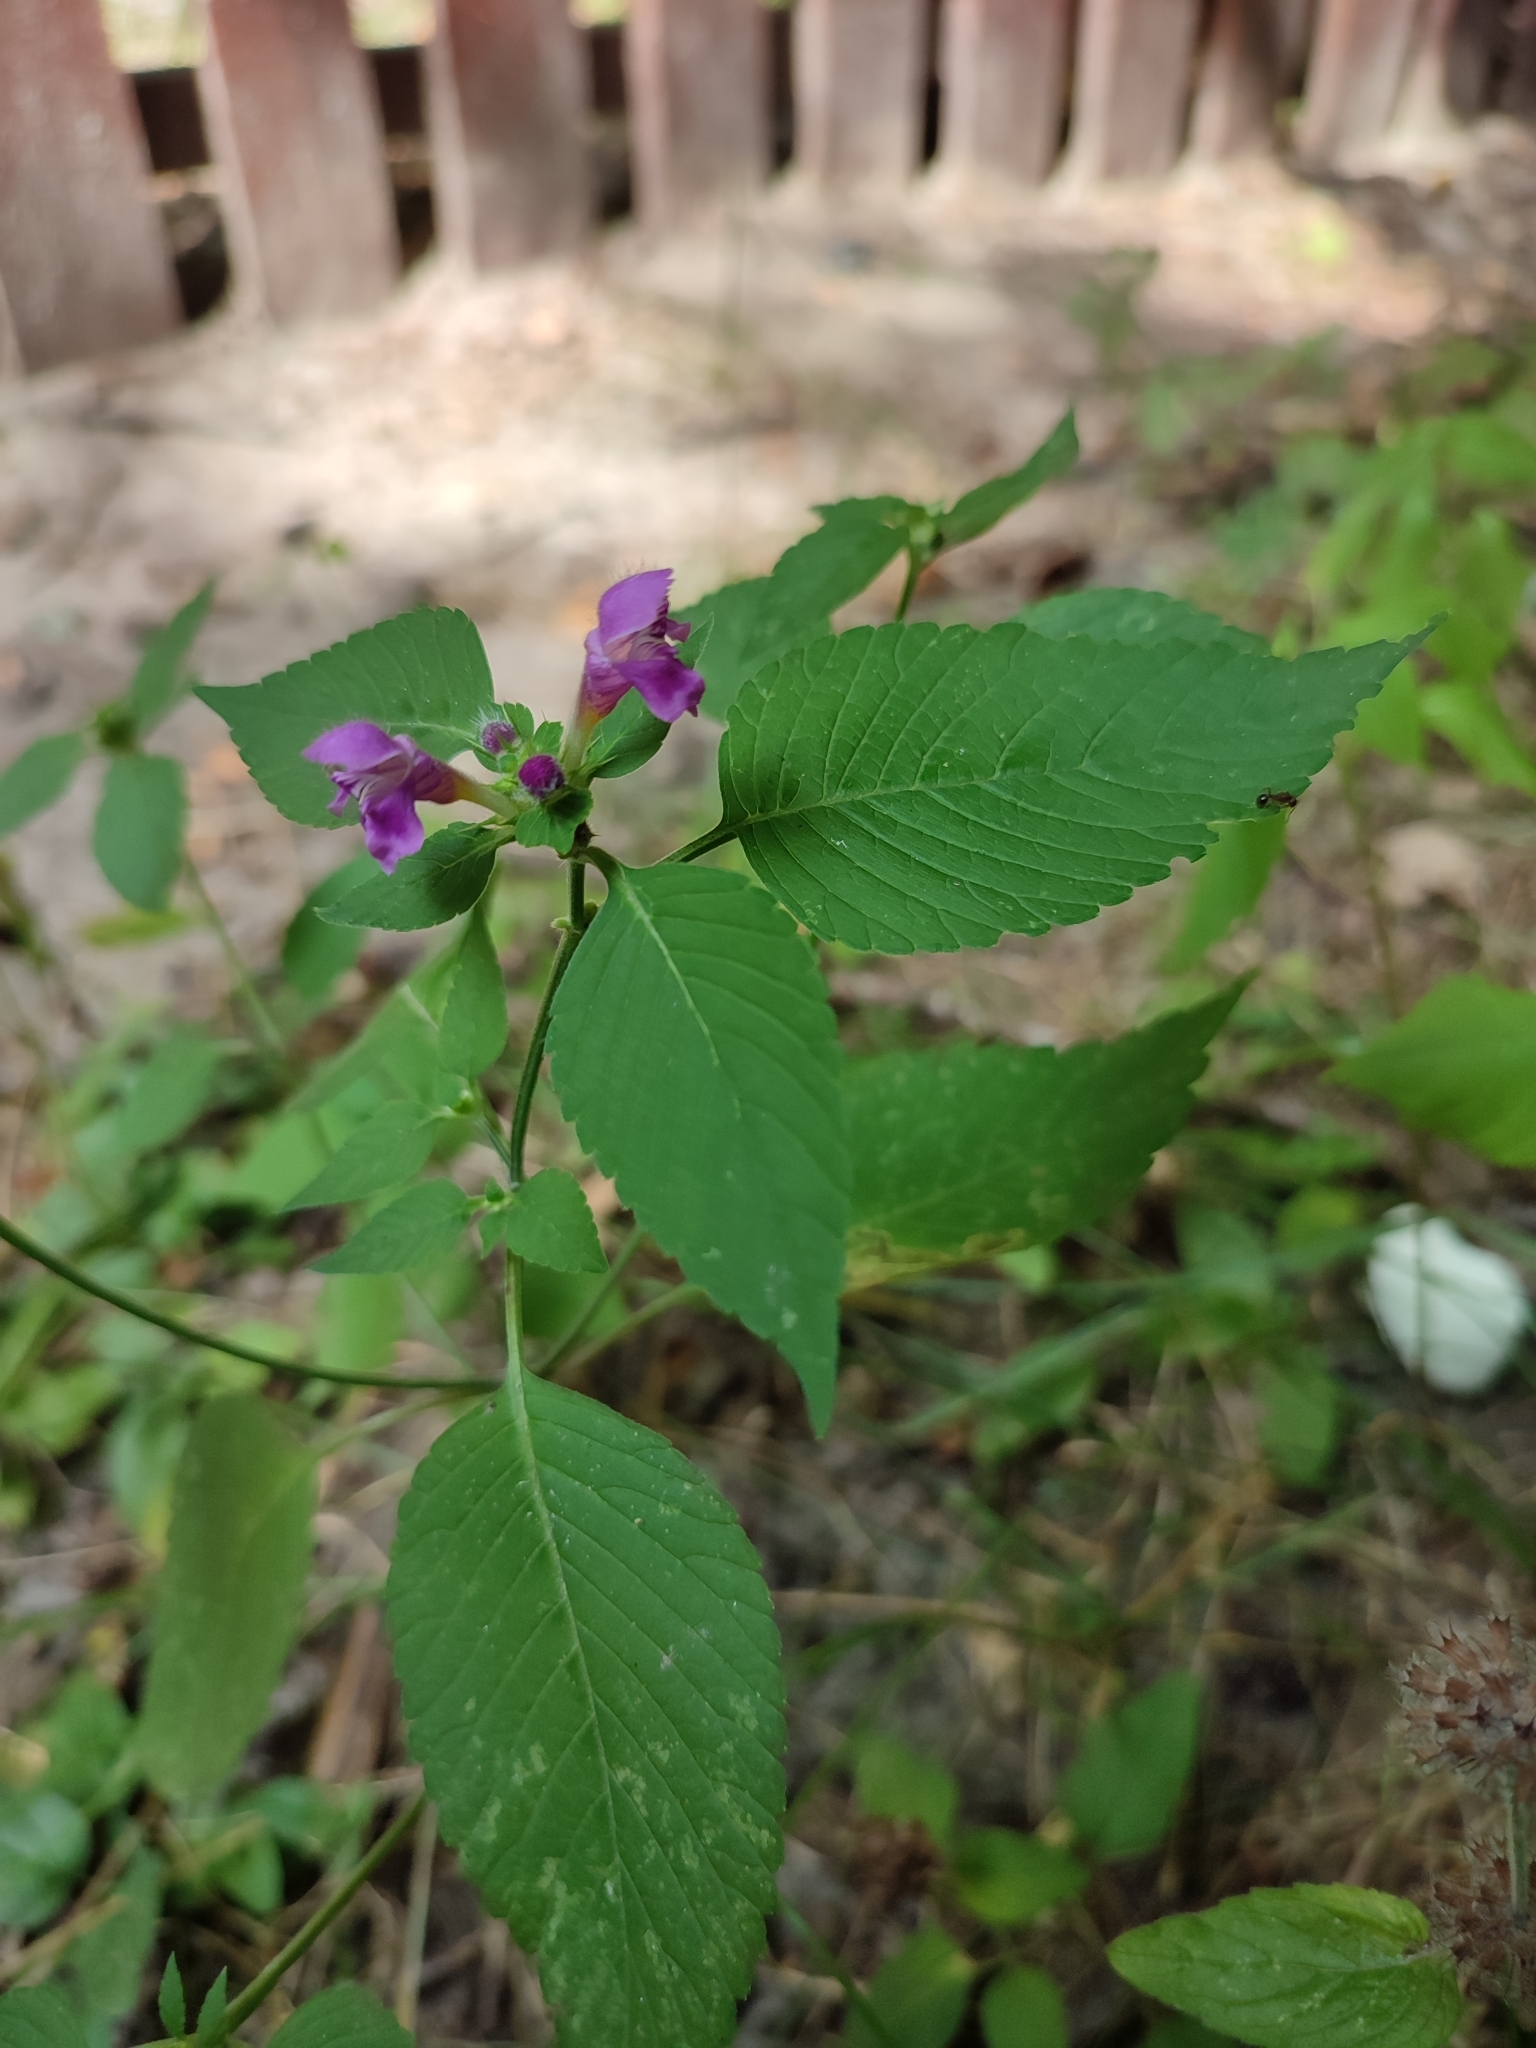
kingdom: Plantae
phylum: Tracheophyta
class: Magnoliopsida
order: Lamiales
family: Lamiaceae
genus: Galeopsis
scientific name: Galeopsis pubescens
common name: Downy hemp-nettle
